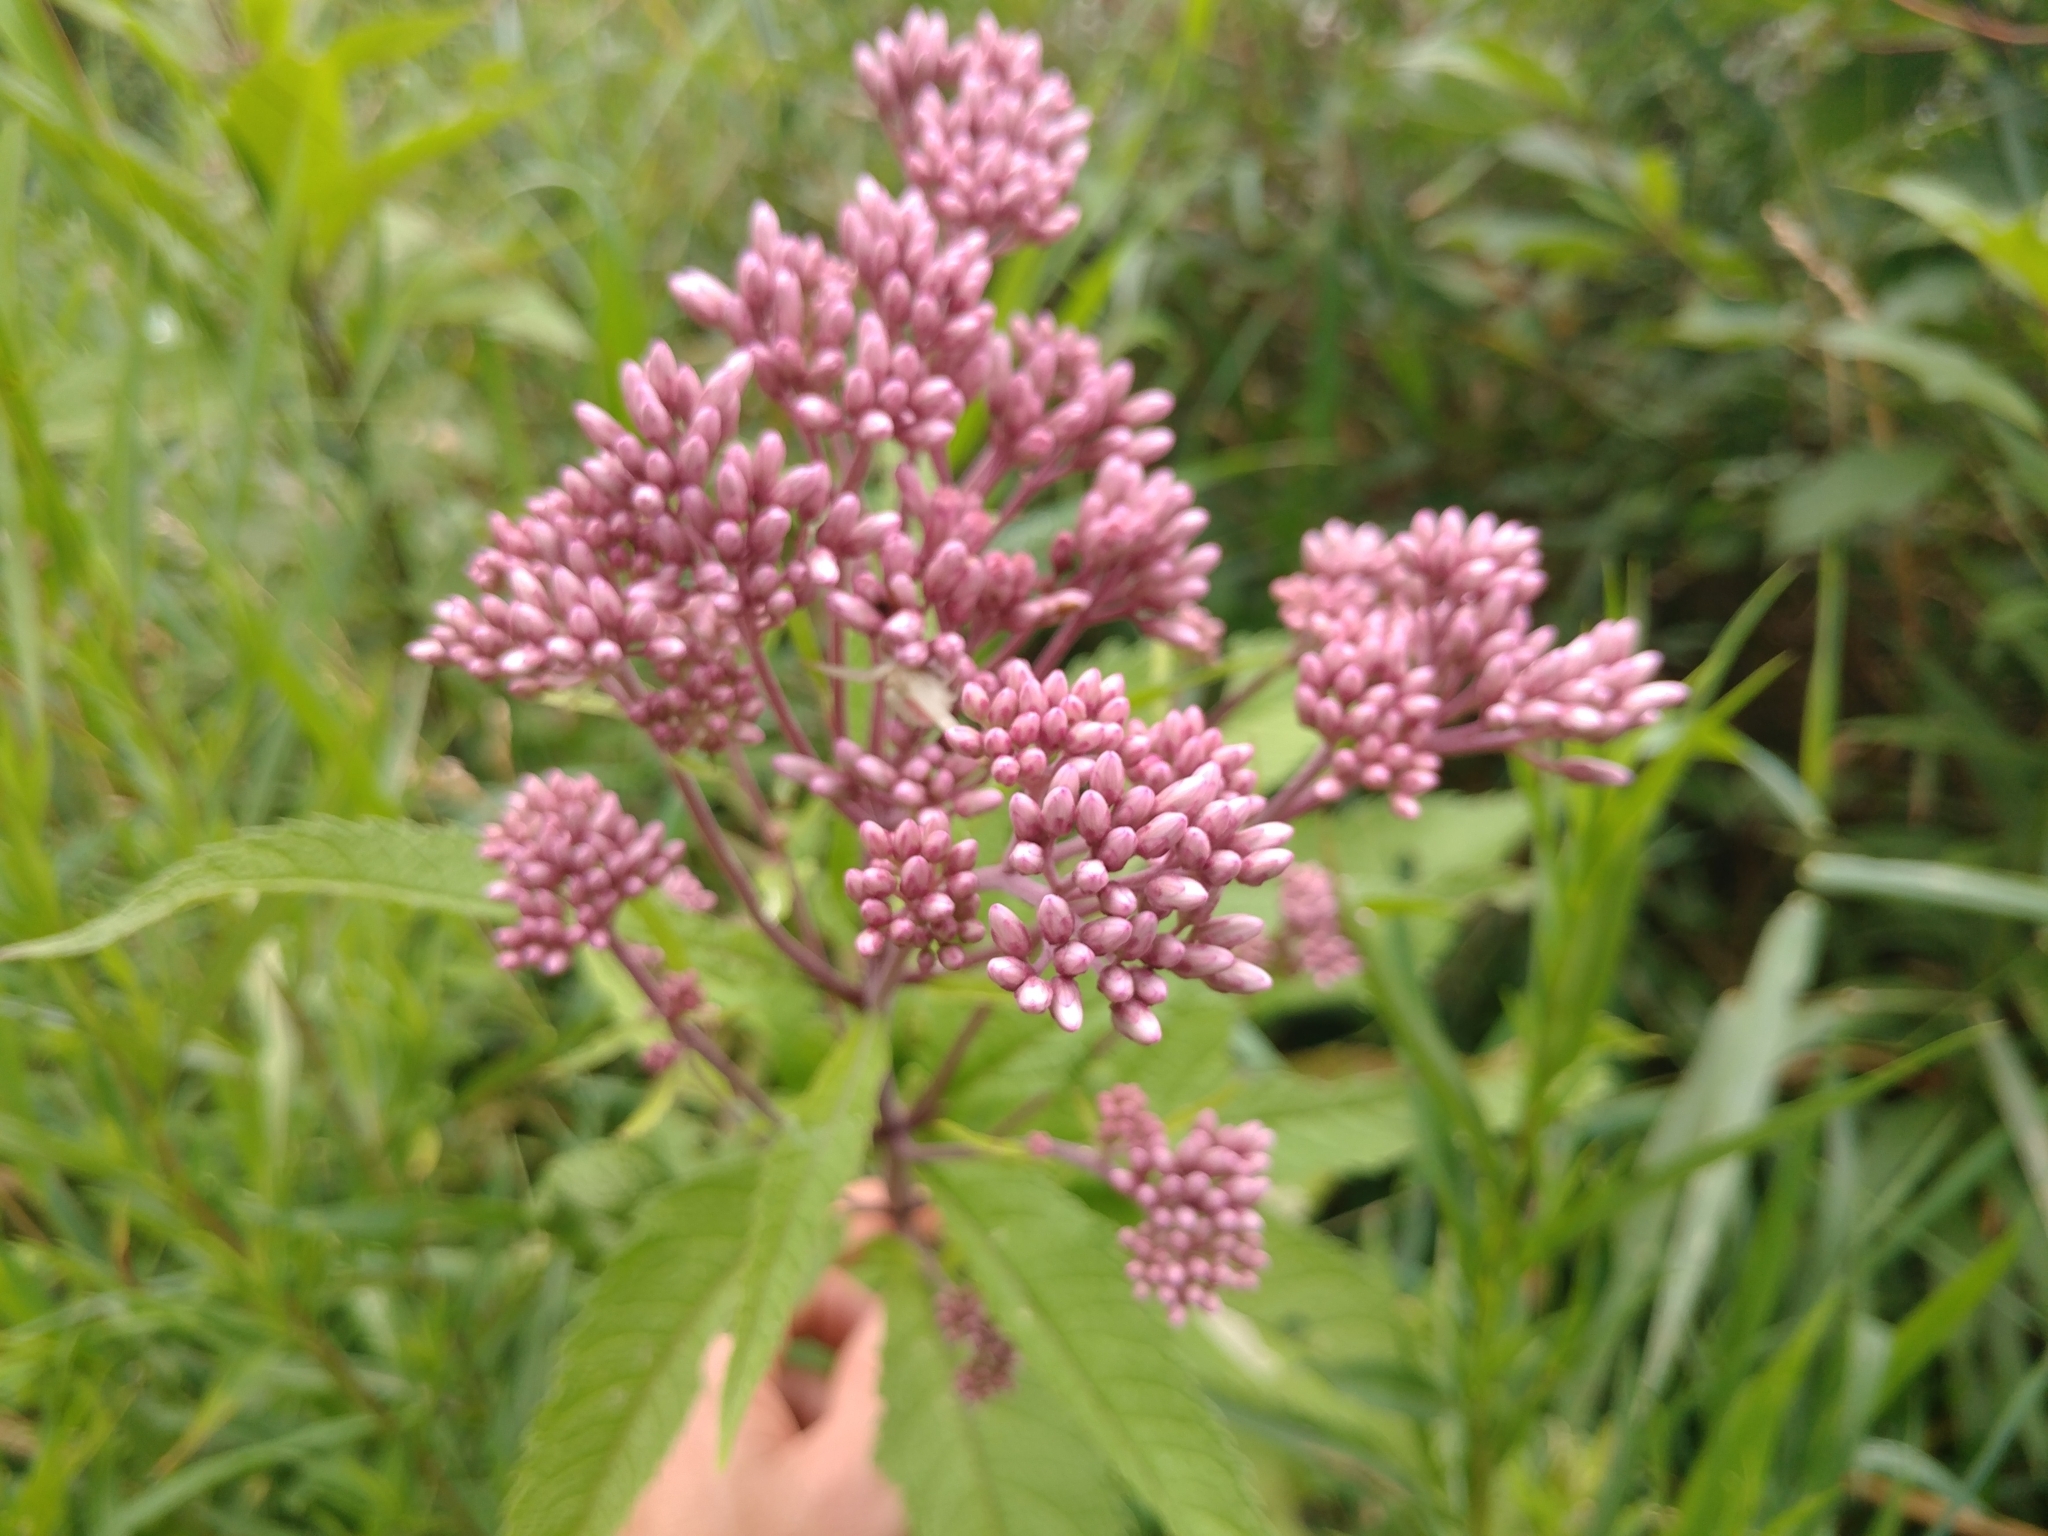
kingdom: Plantae
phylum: Tracheophyta
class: Magnoliopsida
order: Asterales
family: Asteraceae
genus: Eutrochium
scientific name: Eutrochium maculatum
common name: Spotted joe pye weed
